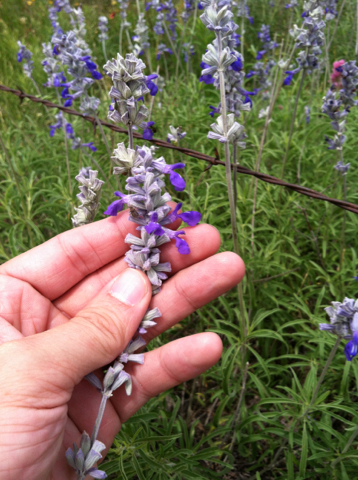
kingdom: Plantae
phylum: Tracheophyta
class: Magnoliopsida
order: Lamiales
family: Lamiaceae
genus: Salvia
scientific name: Salvia farinacea
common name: Mealy sage
